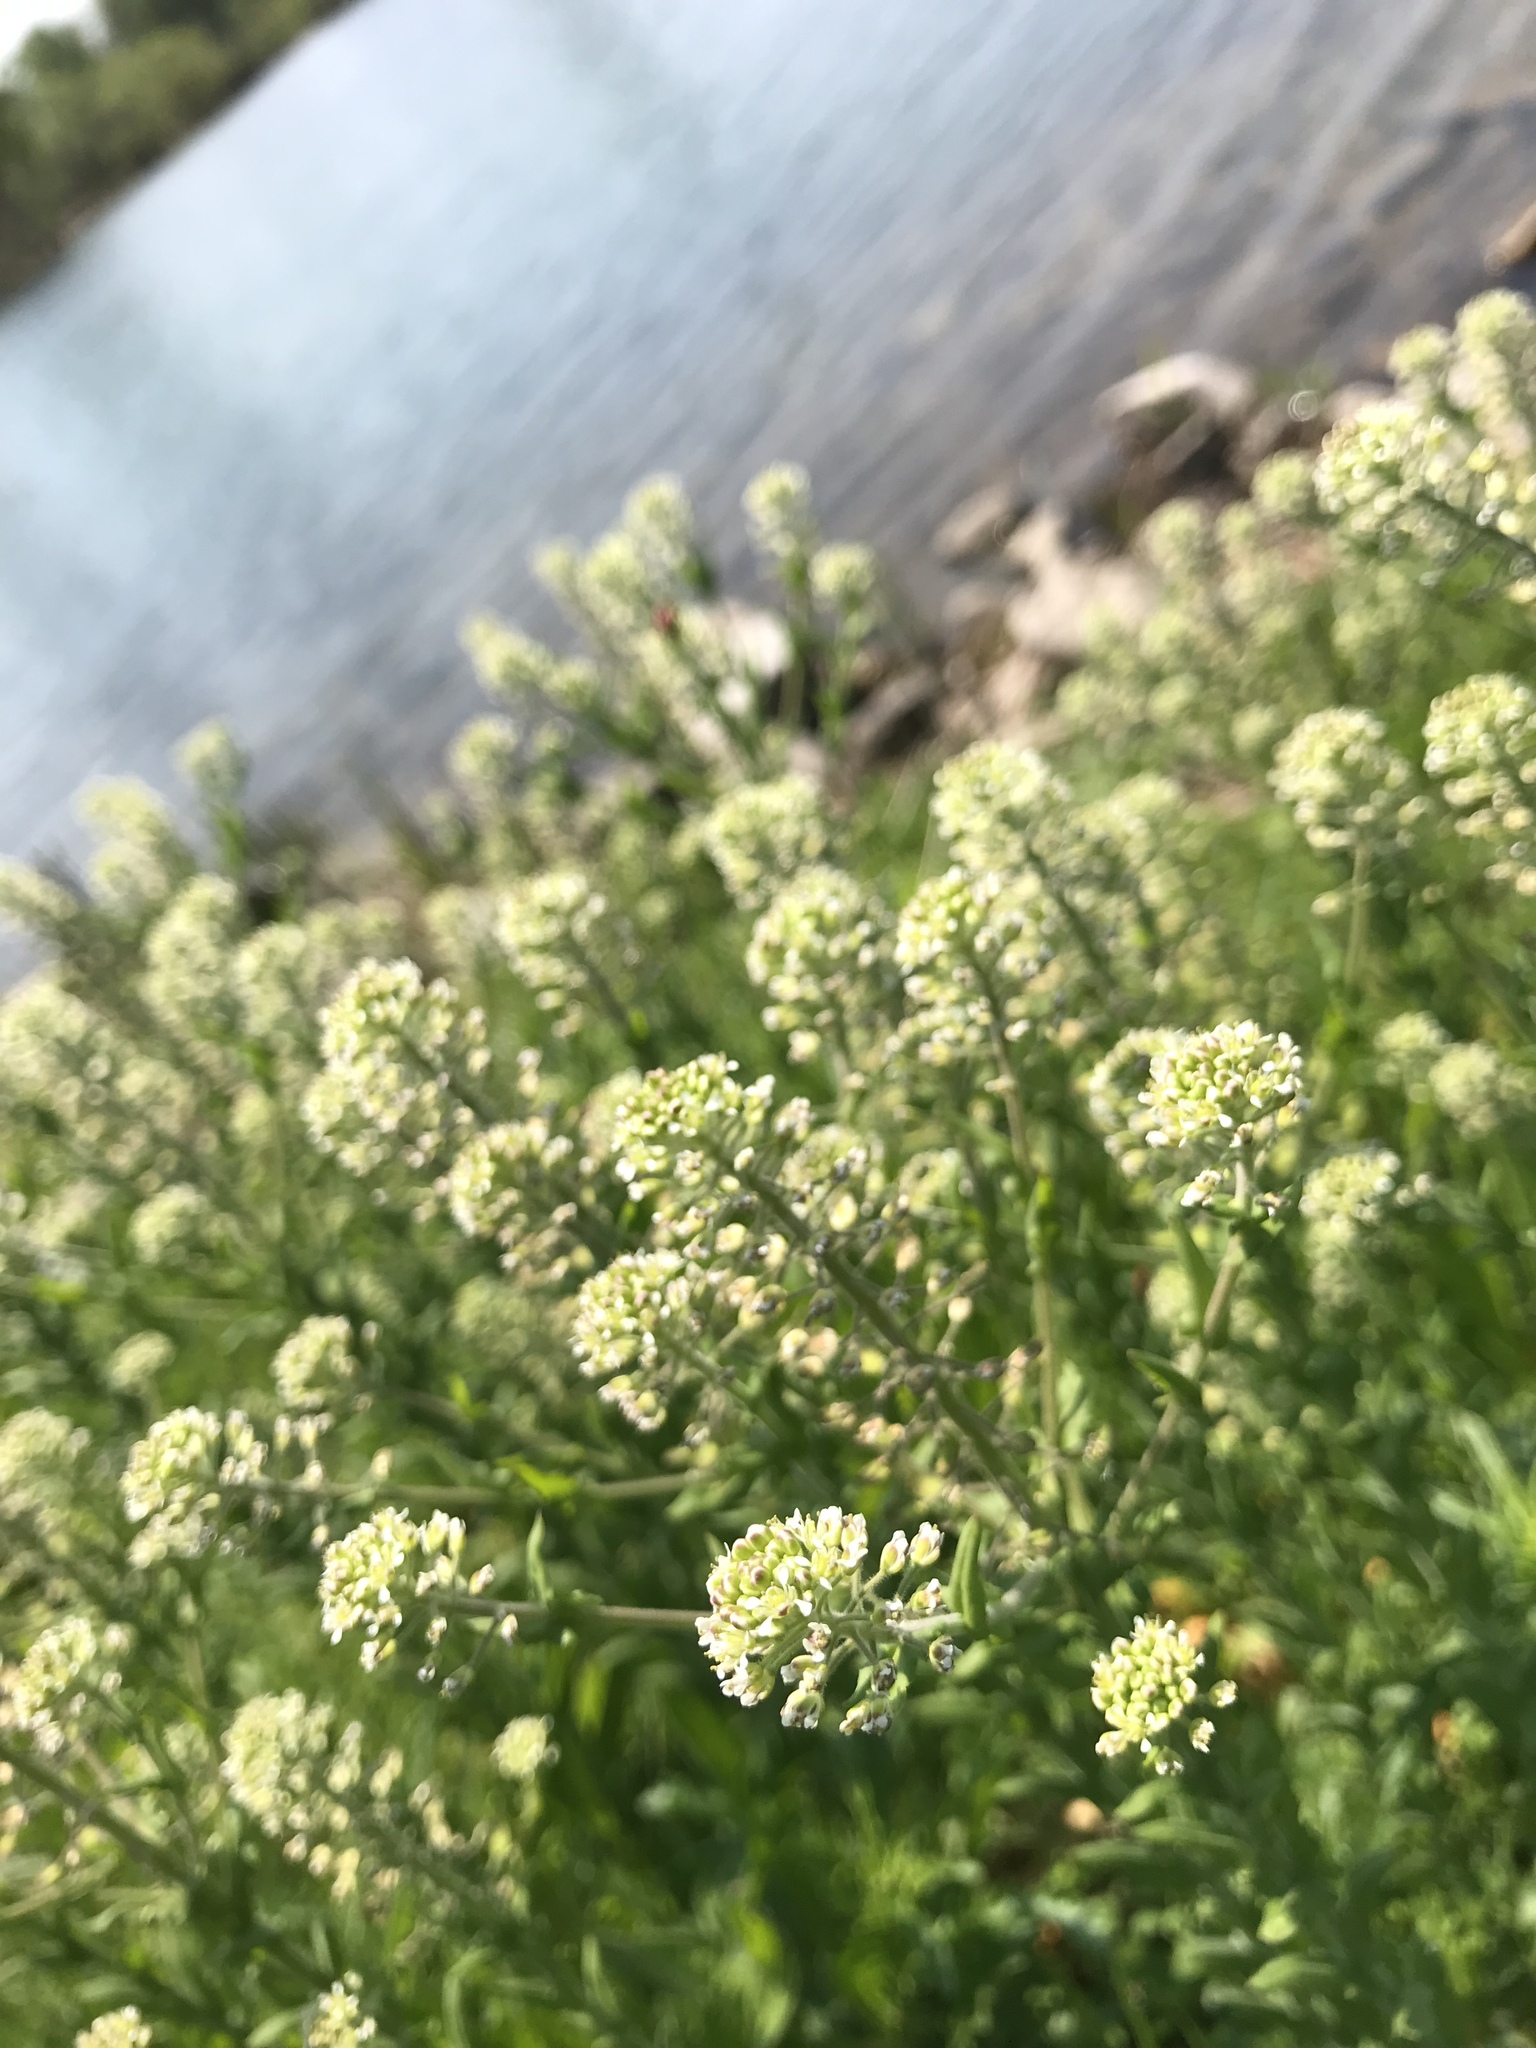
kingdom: Plantae
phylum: Tracheophyta
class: Magnoliopsida
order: Brassicales
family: Brassicaceae
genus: Lepidium
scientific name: Lepidium campestre
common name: Field pepperwort
